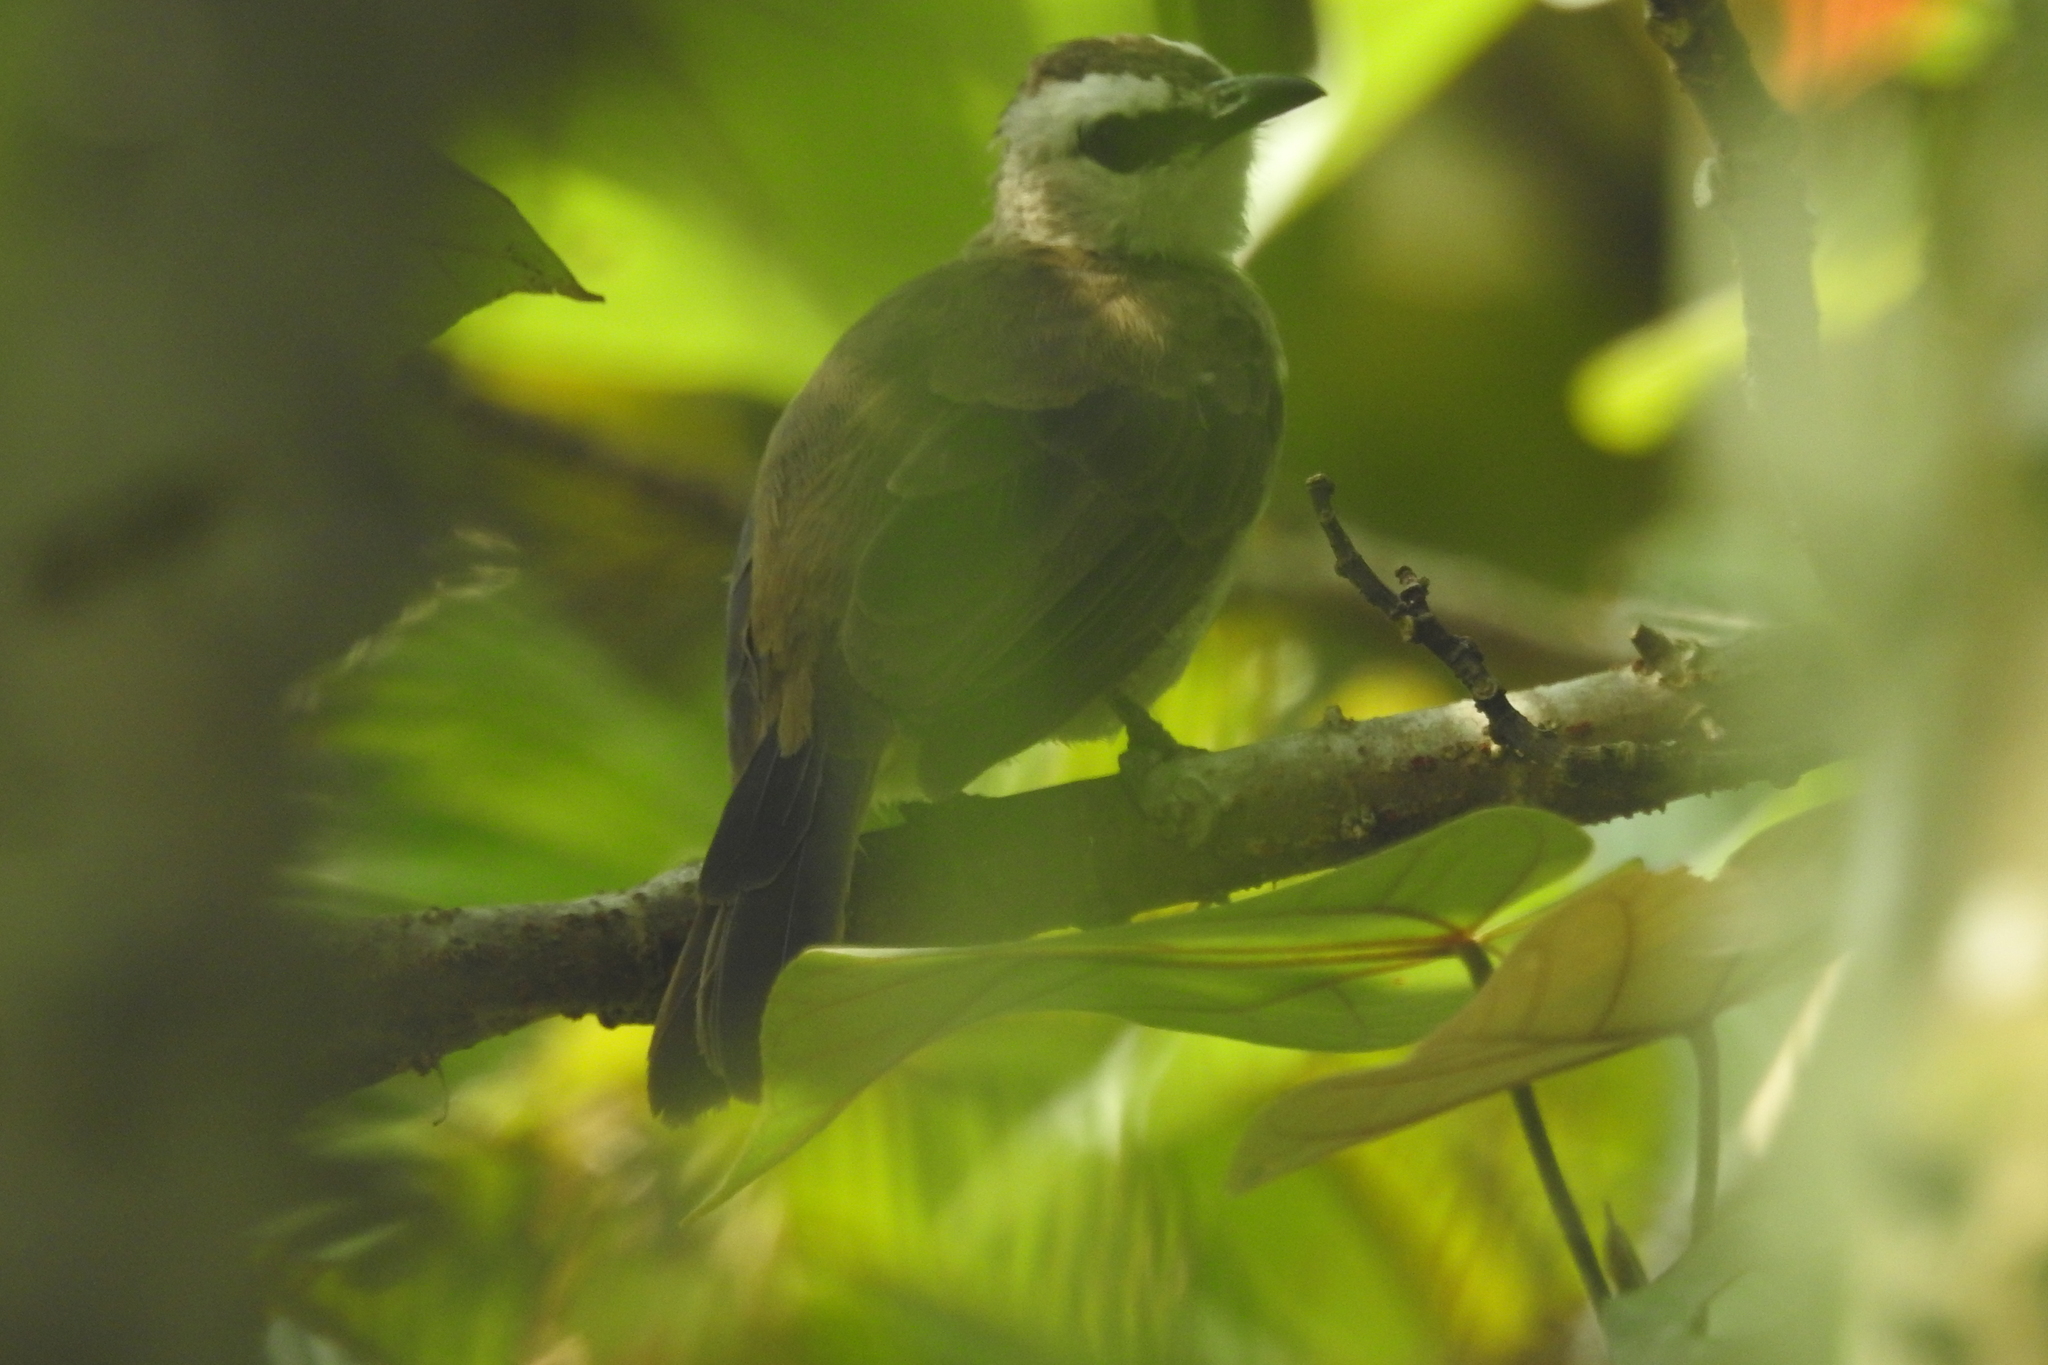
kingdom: Animalia
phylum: Chordata
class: Aves
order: Passeriformes
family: Pycnonotidae
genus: Pycnonotus
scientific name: Pycnonotus goiavier
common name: Yellow-vented bulbul
